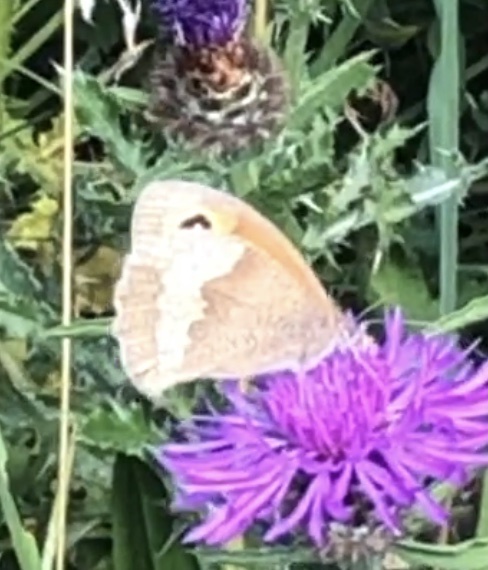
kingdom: Animalia
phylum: Arthropoda
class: Insecta
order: Lepidoptera
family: Nymphalidae
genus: Maniola
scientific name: Maniola jurtina
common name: Meadow brown
